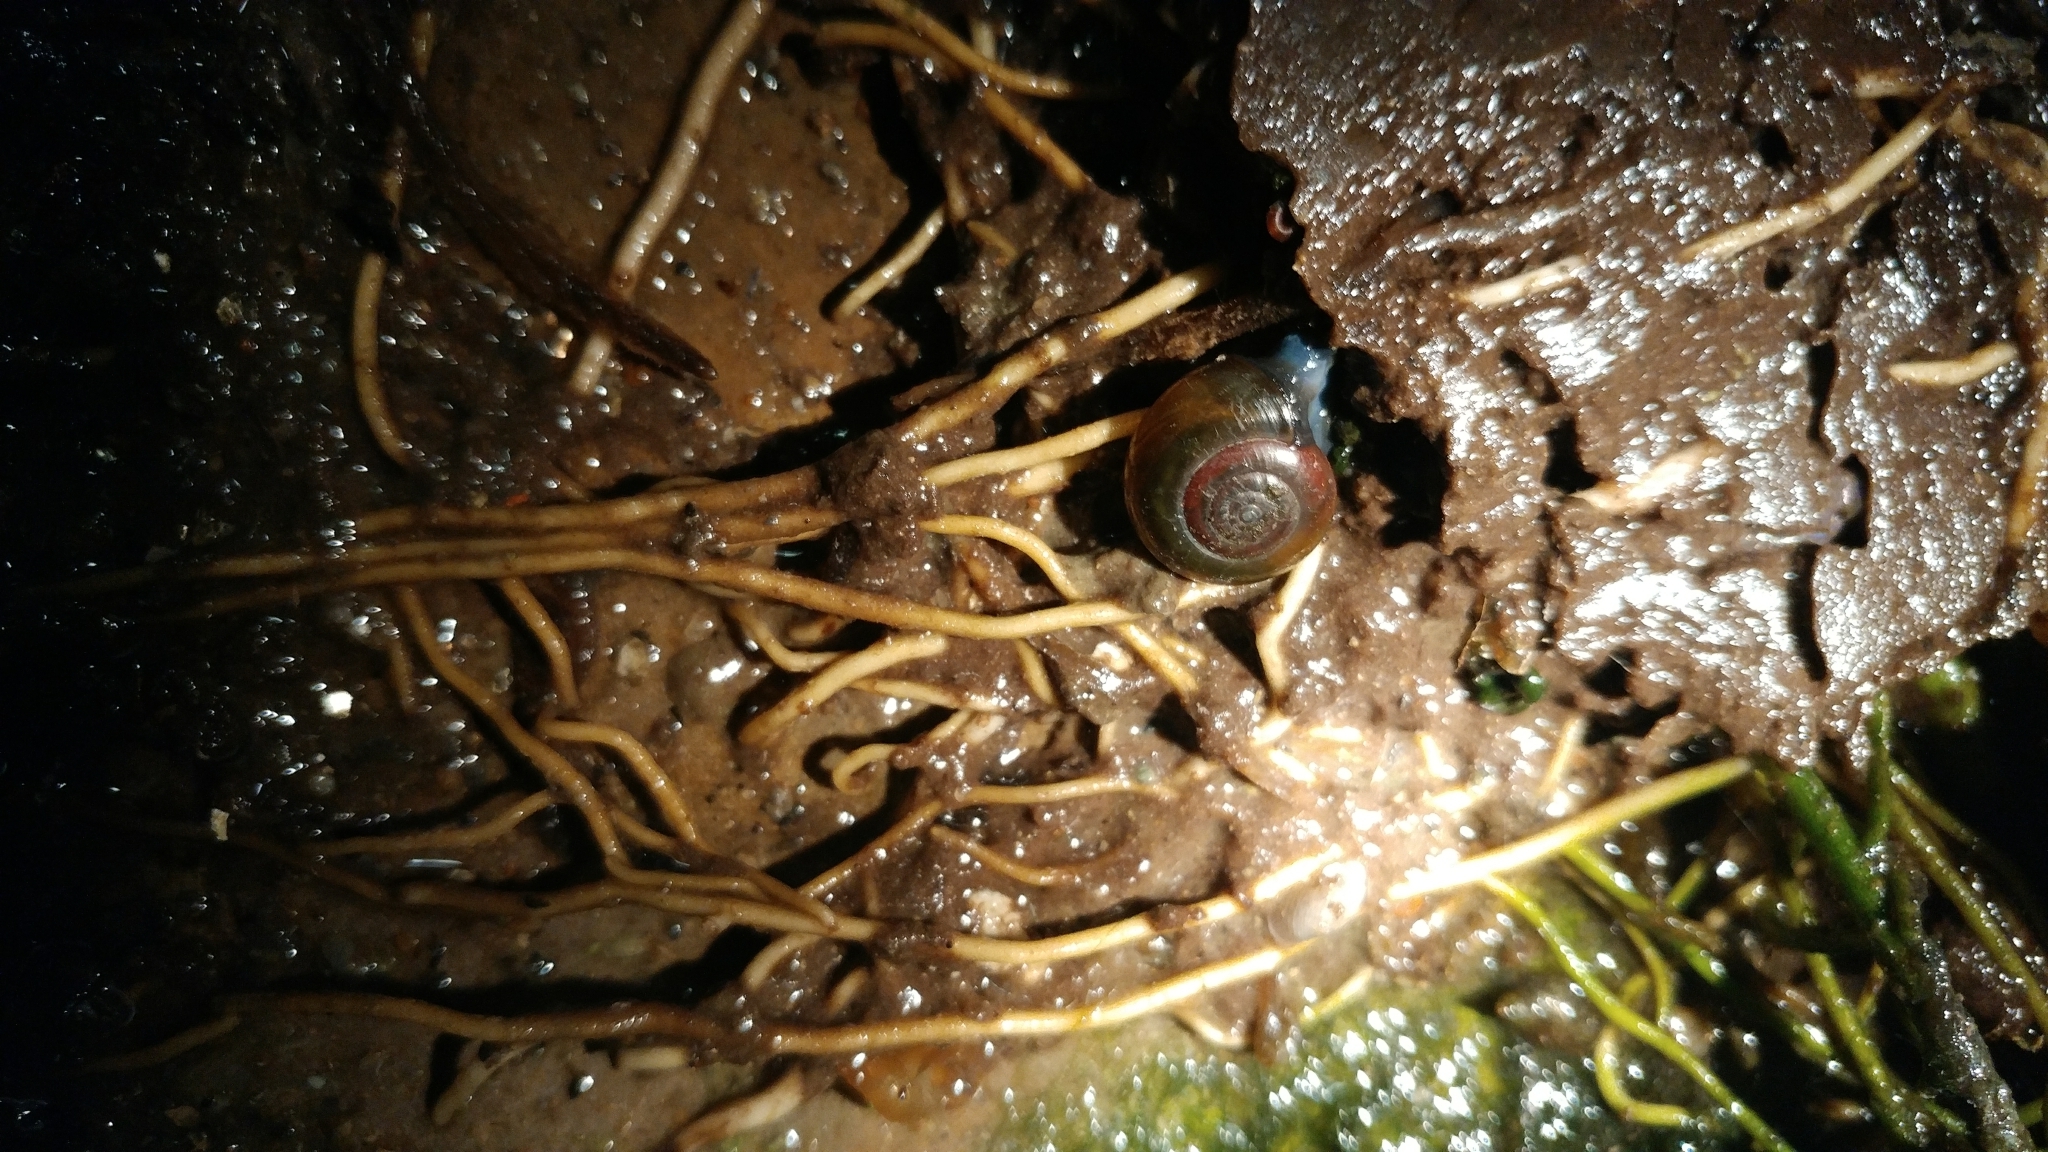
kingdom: Animalia
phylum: Mollusca
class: Gastropoda
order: Stylommatophora
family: Oxychilidae
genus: Oxychilus
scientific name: Oxychilus draparnaudi
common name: Draparnaud's glass snail
